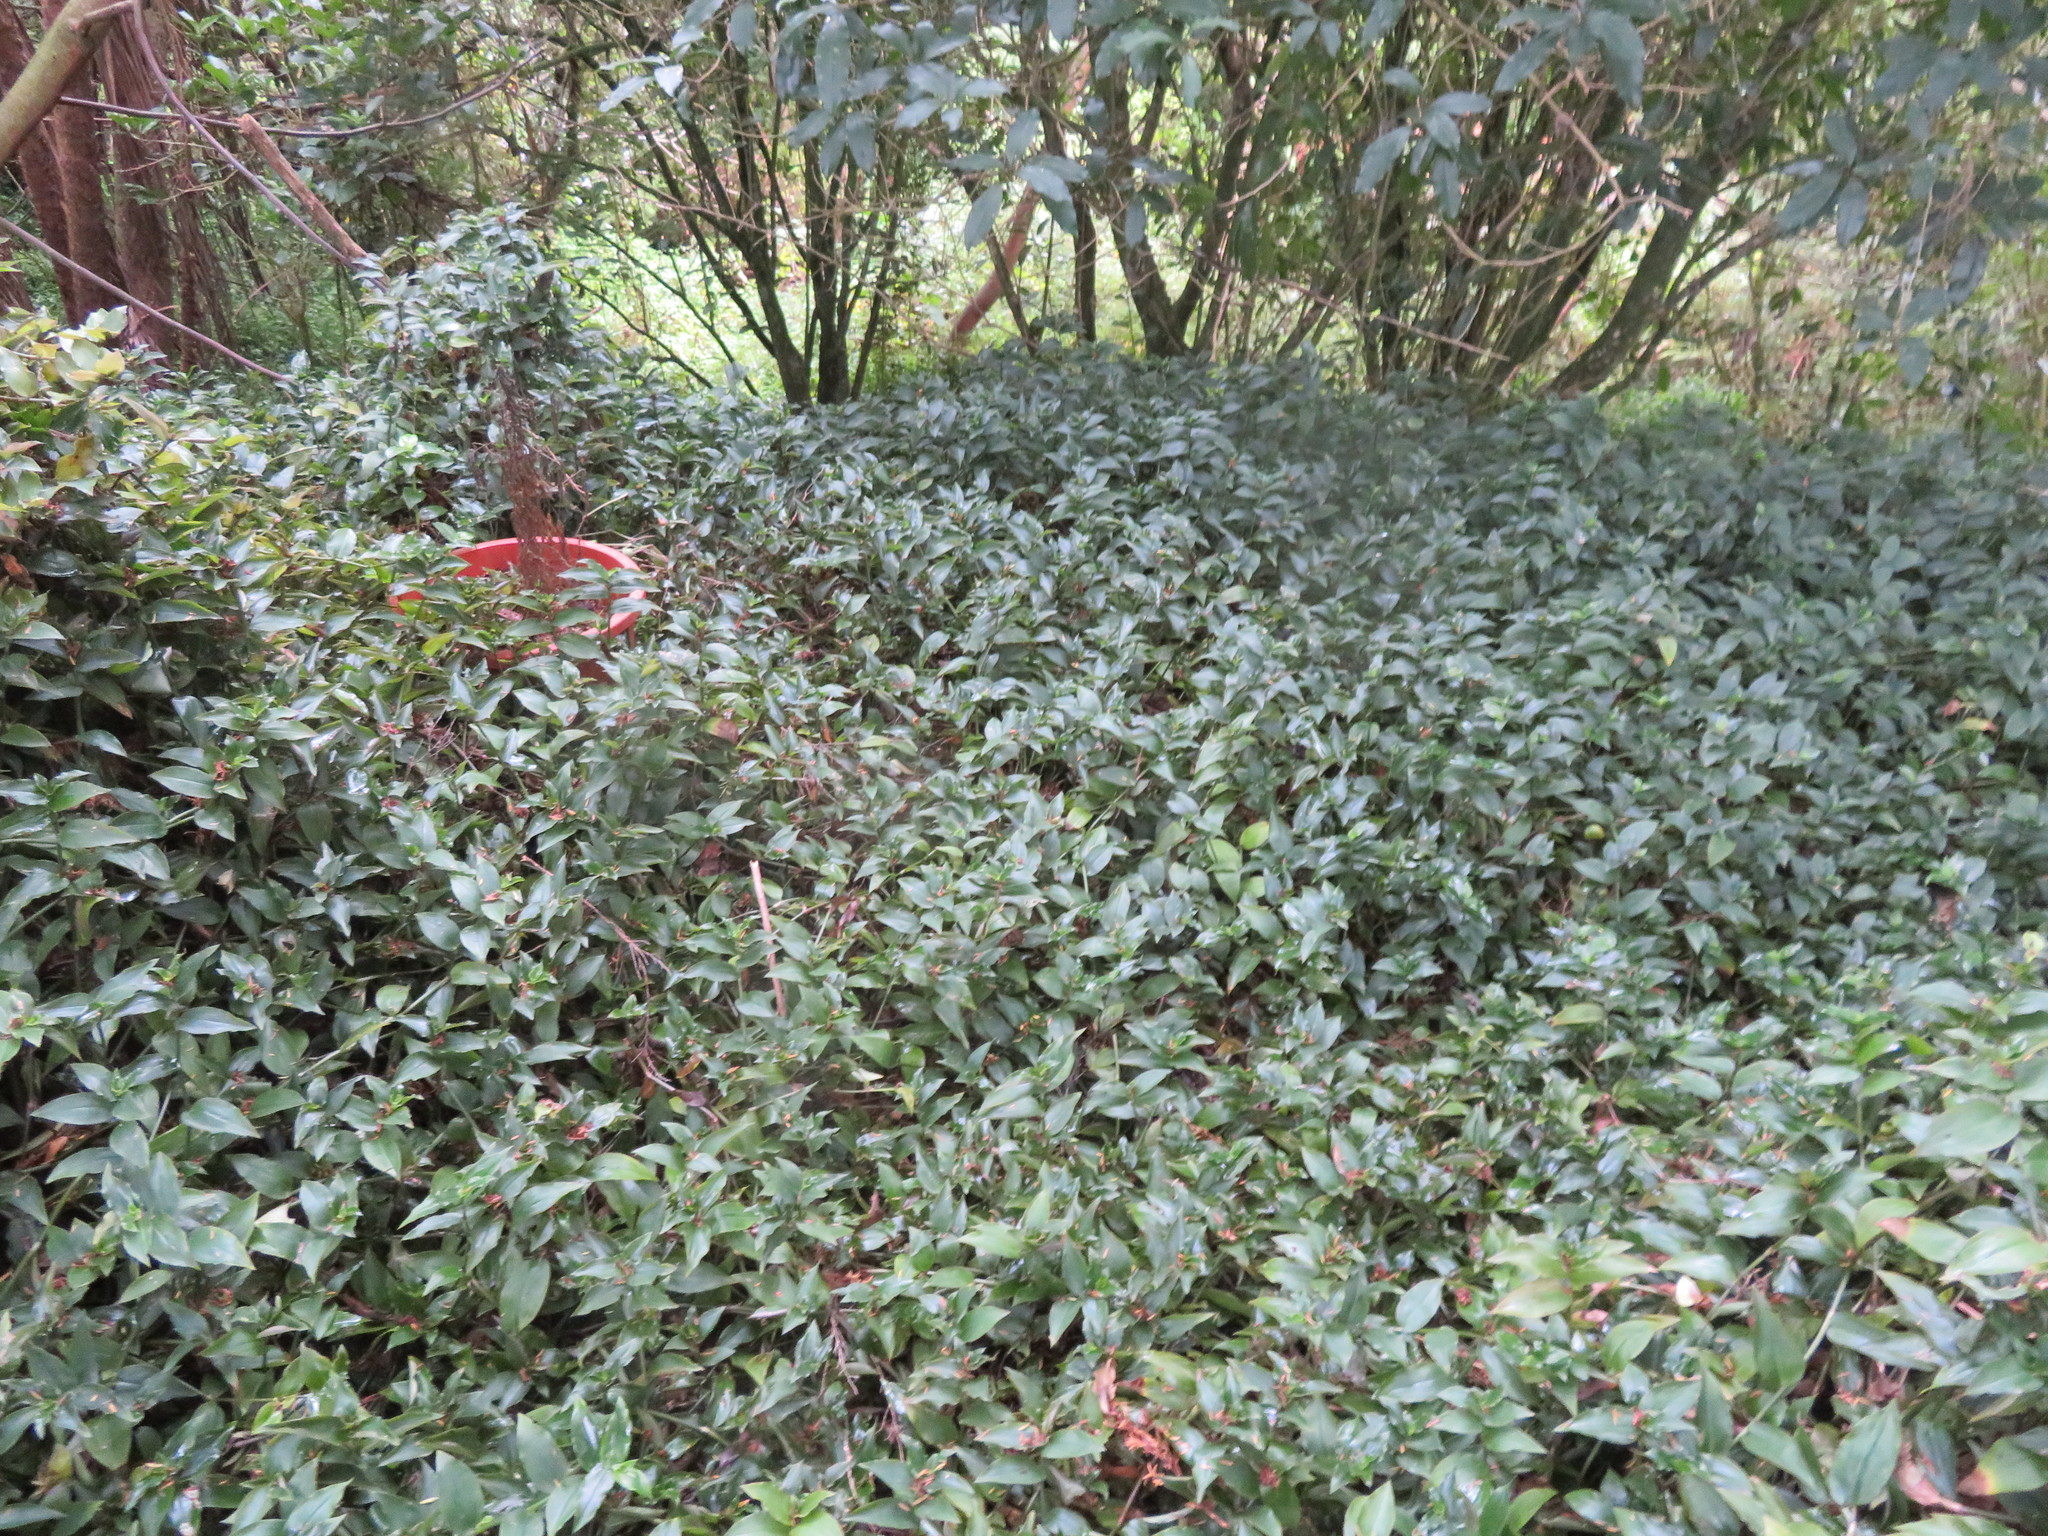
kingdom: Plantae
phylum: Tracheophyta
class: Liliopsida
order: Commelinales
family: Commelinaceae
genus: Tradescantia
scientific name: Tradescantia fluminensis
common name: Wandering-jew
